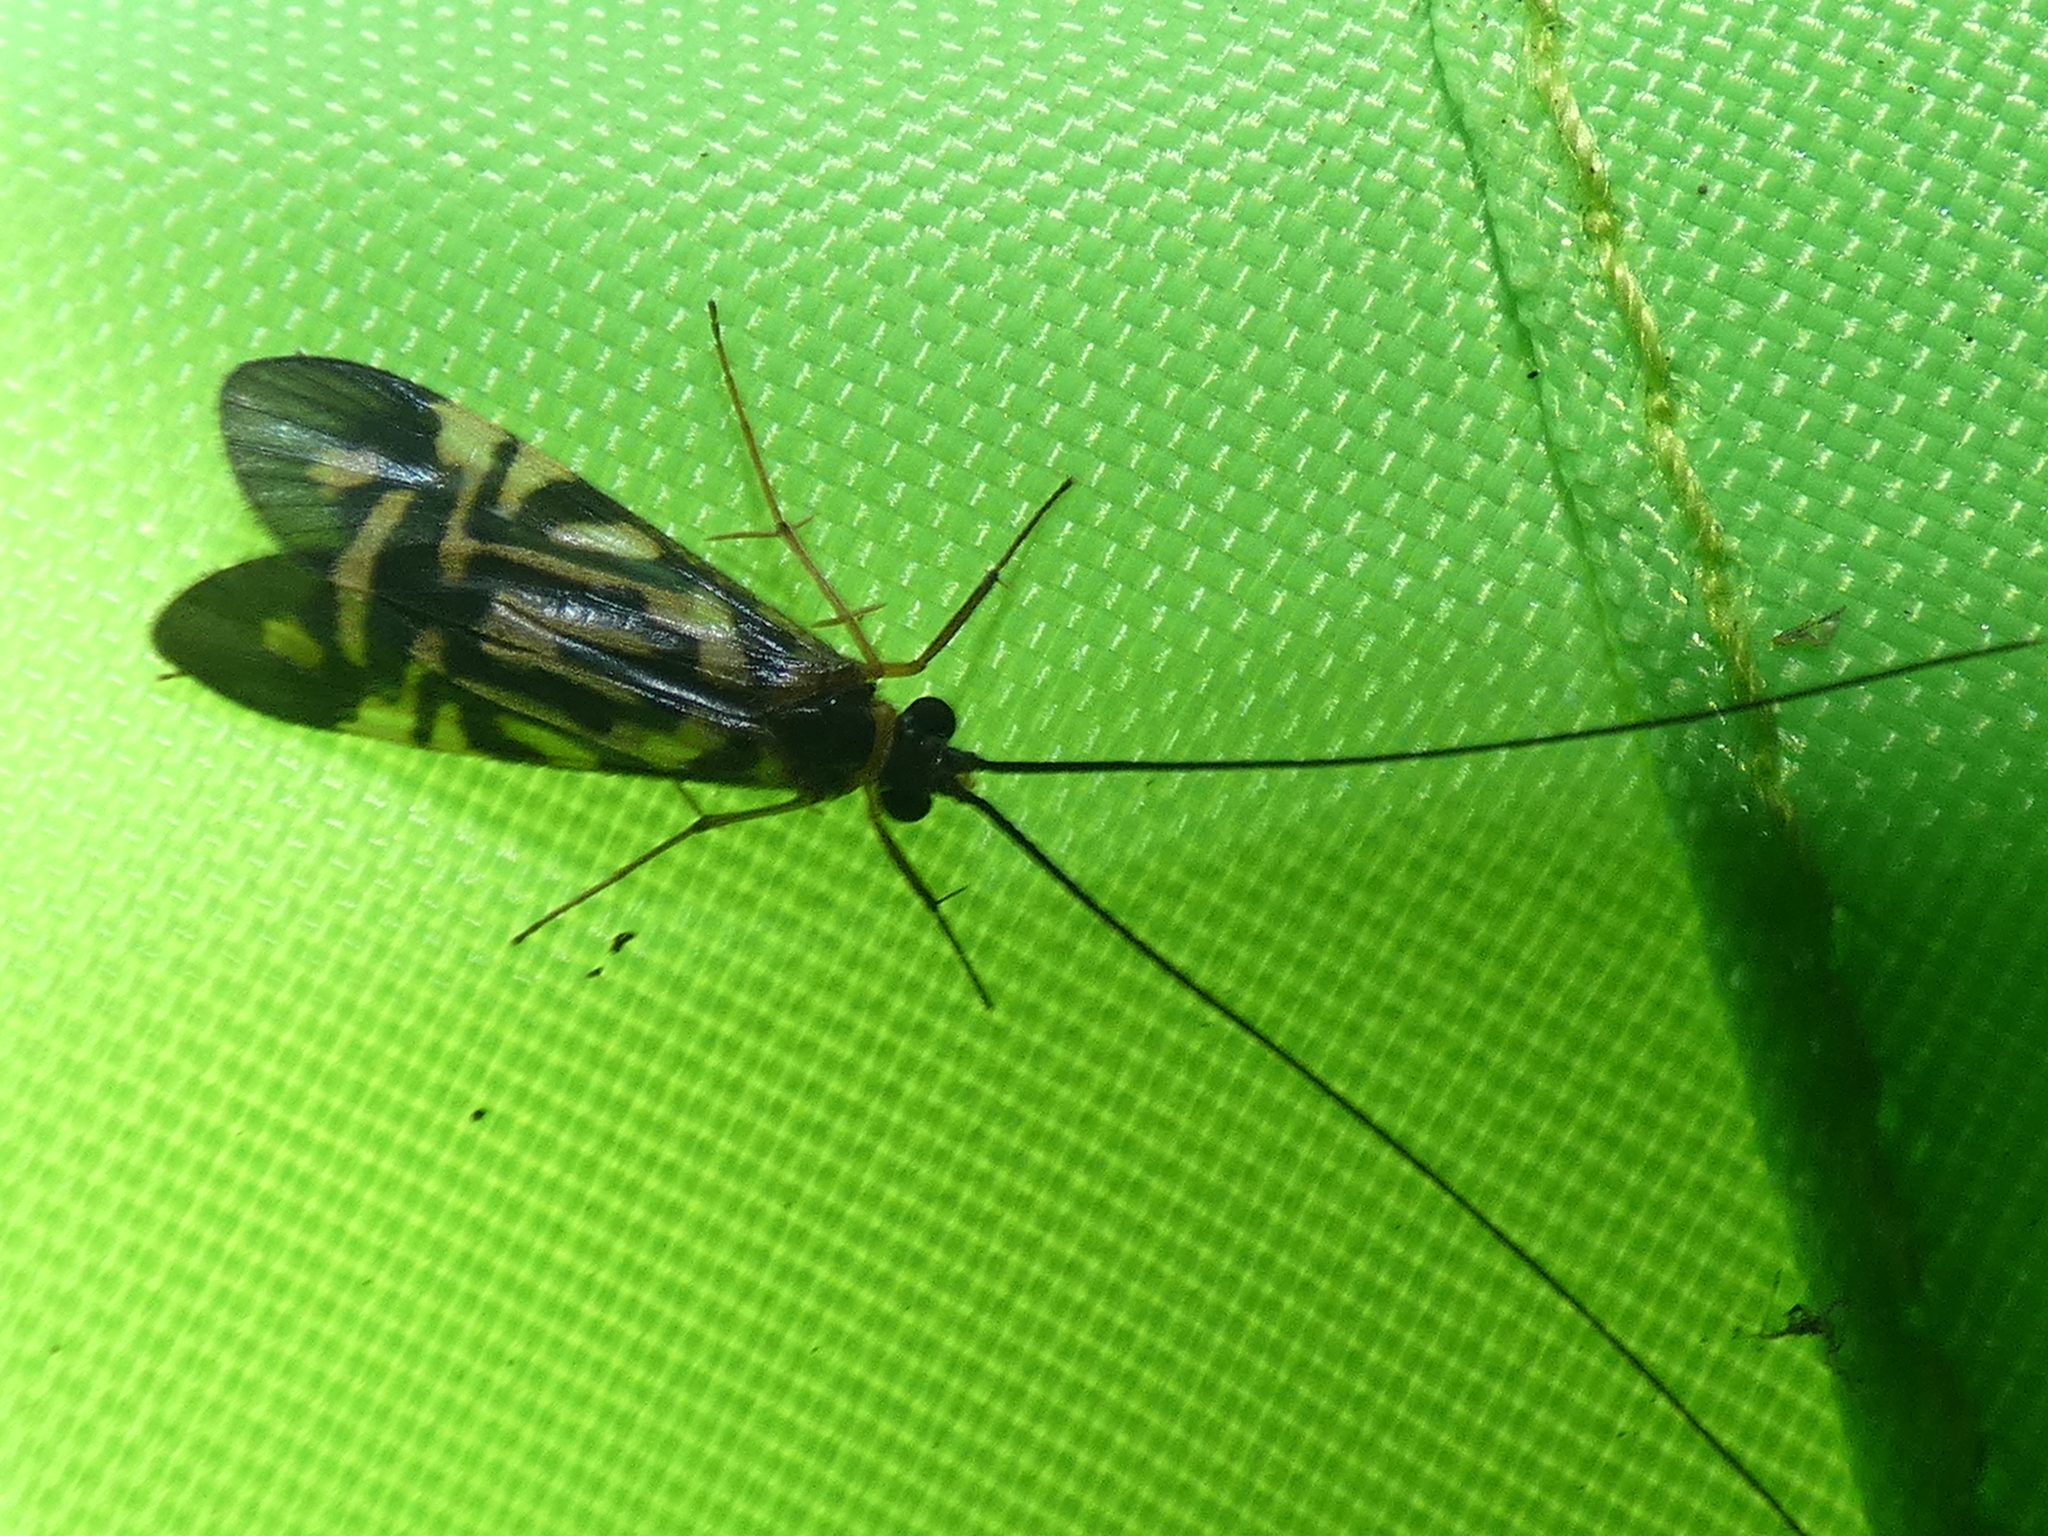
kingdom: Animalia
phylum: Arthropoda
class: Insecta
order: Trichoptera
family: Hydropsychidae
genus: Macrostemum
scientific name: Macrostemum carolina
